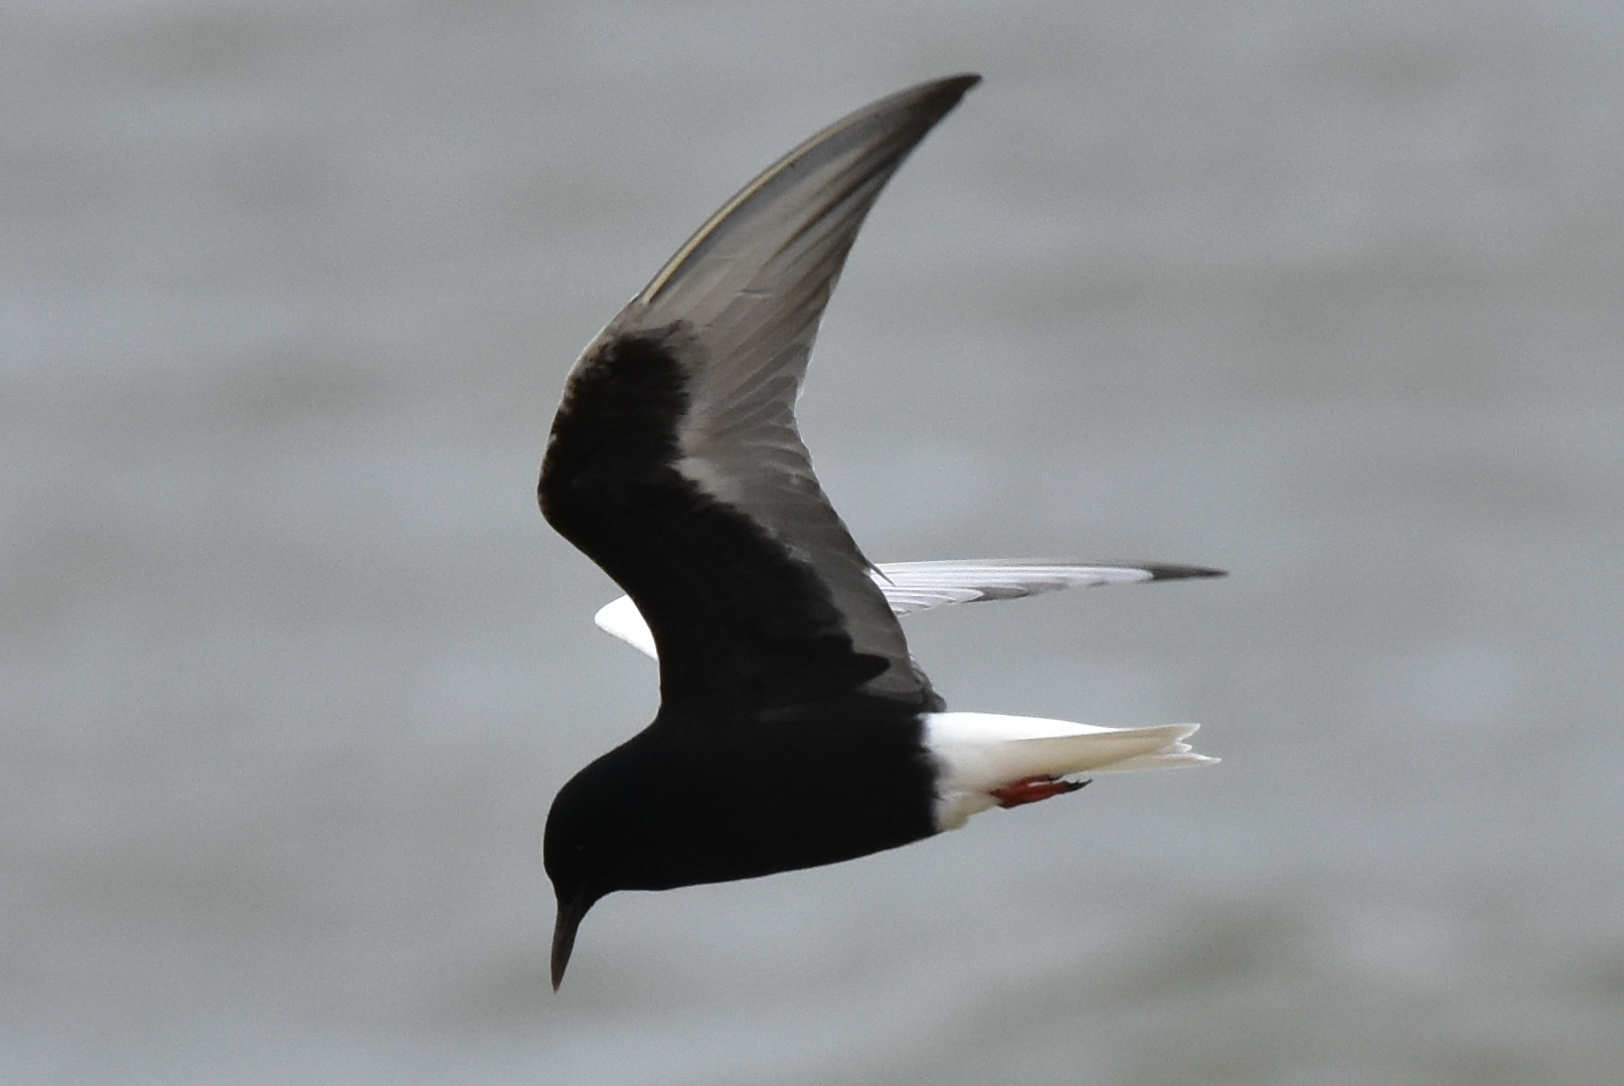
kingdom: Animalia
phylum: Chordata
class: Aves
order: Charadriiformes
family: Laridae
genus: Chlidonias
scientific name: Chlidonias leucopterus
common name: White-winged tern
